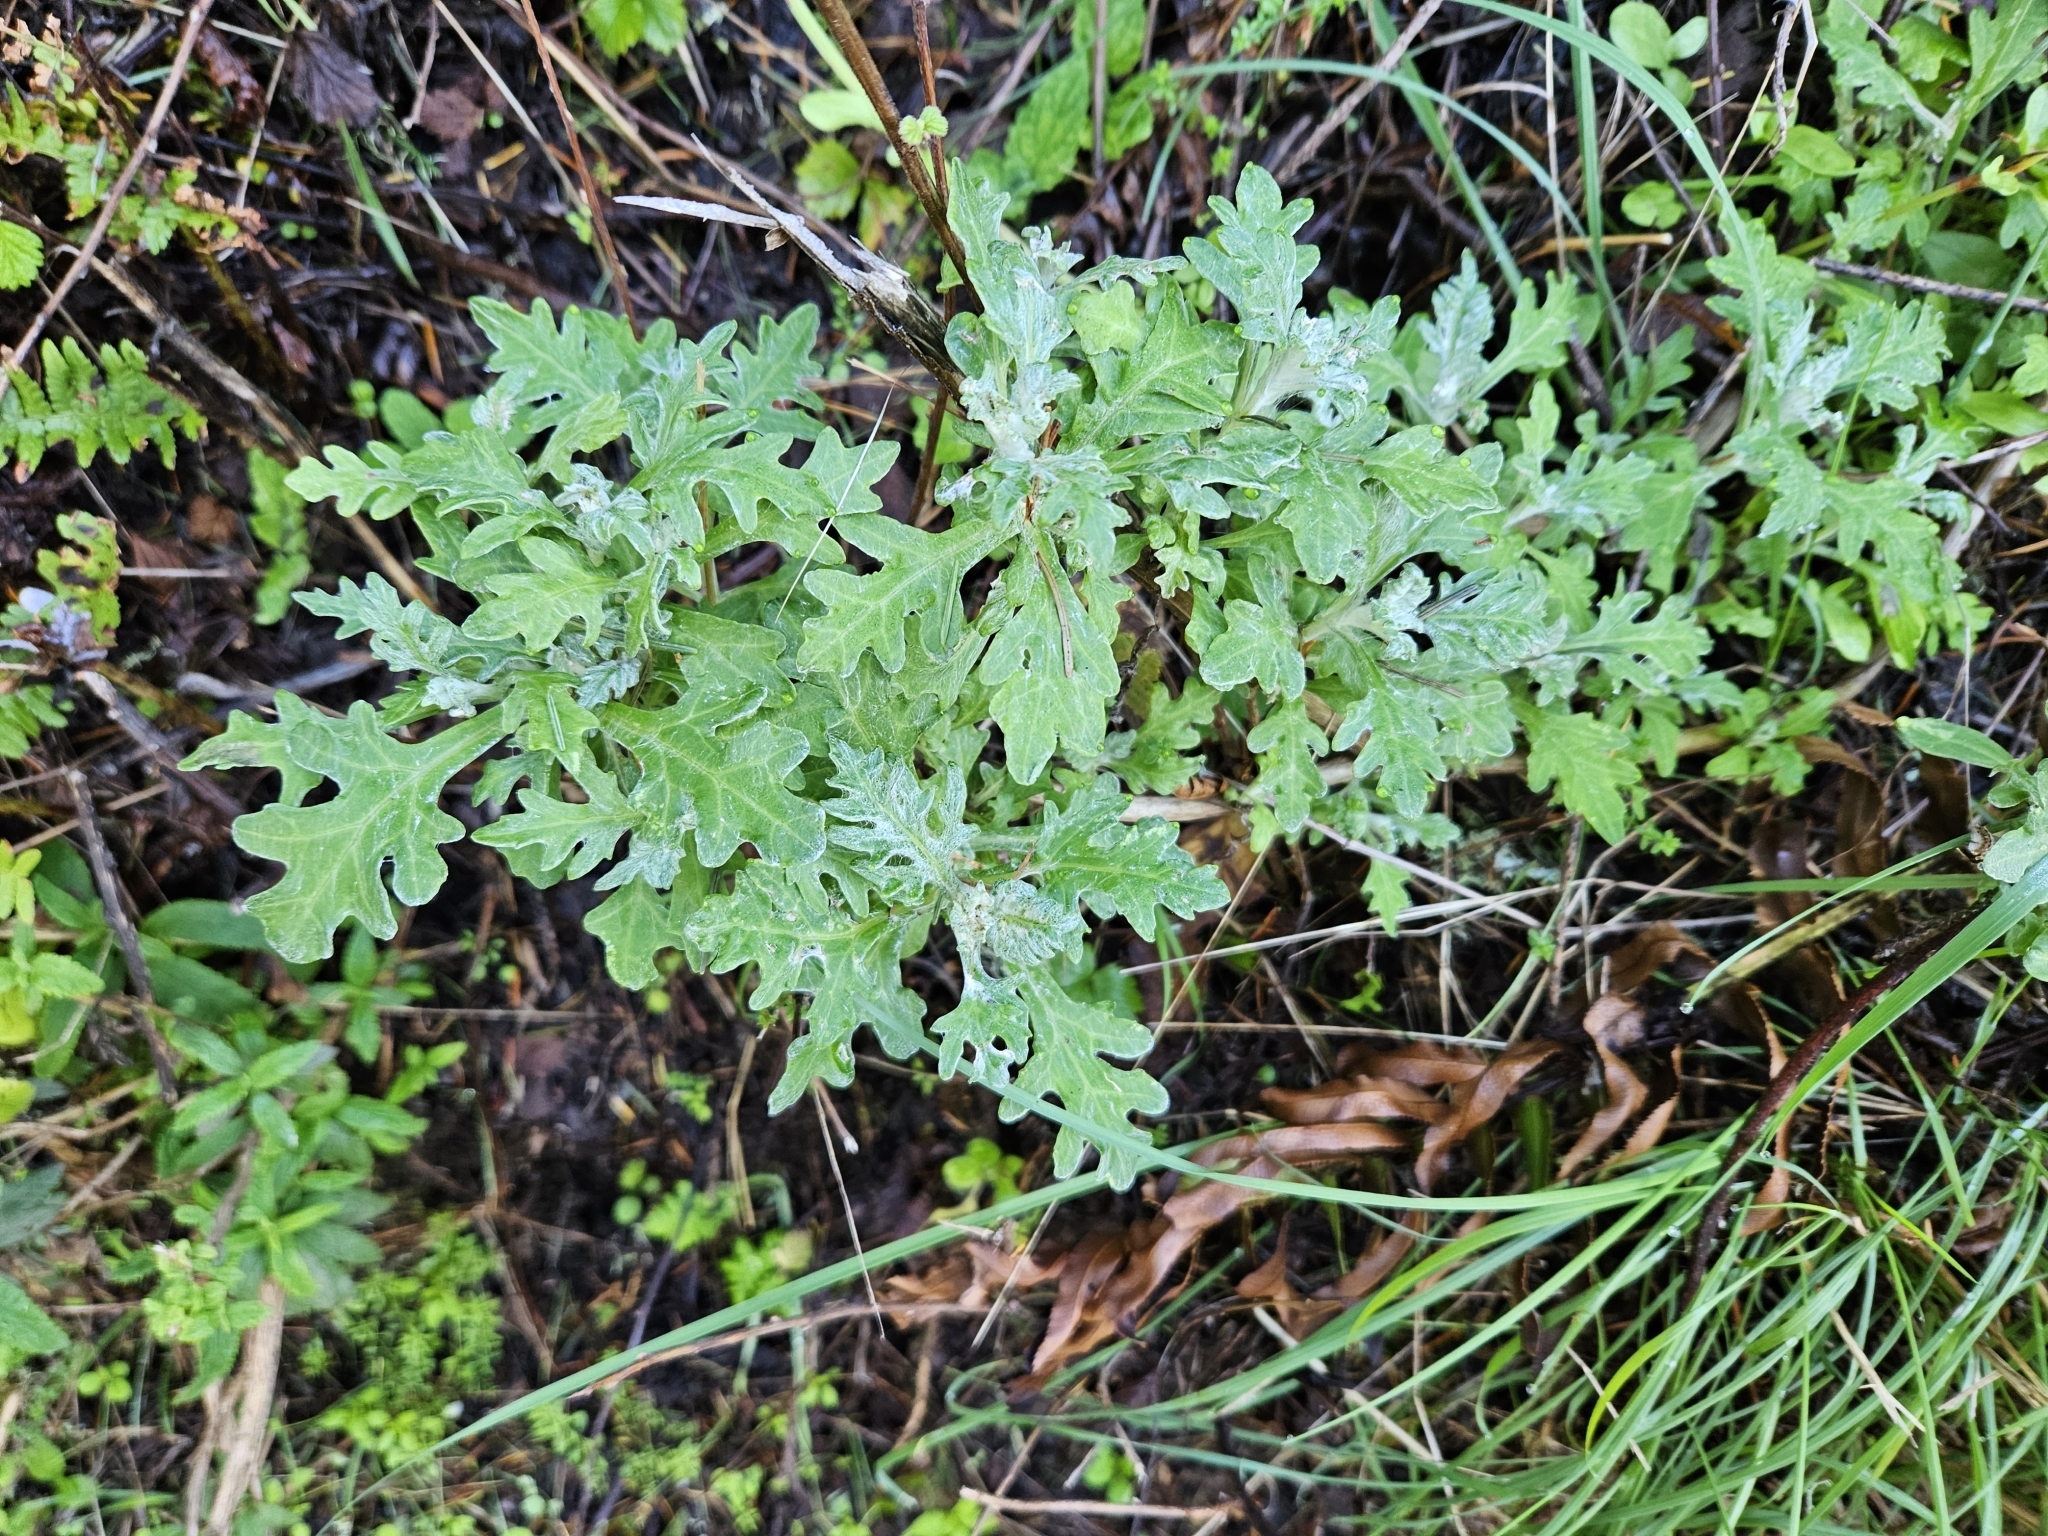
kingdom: Plantae
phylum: Tracheophyta
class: Magnoliopsida
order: Asterales
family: Asteraceae
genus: Eriophyllum
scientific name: Eriophyllum staechadifolium
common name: Lizardtail
